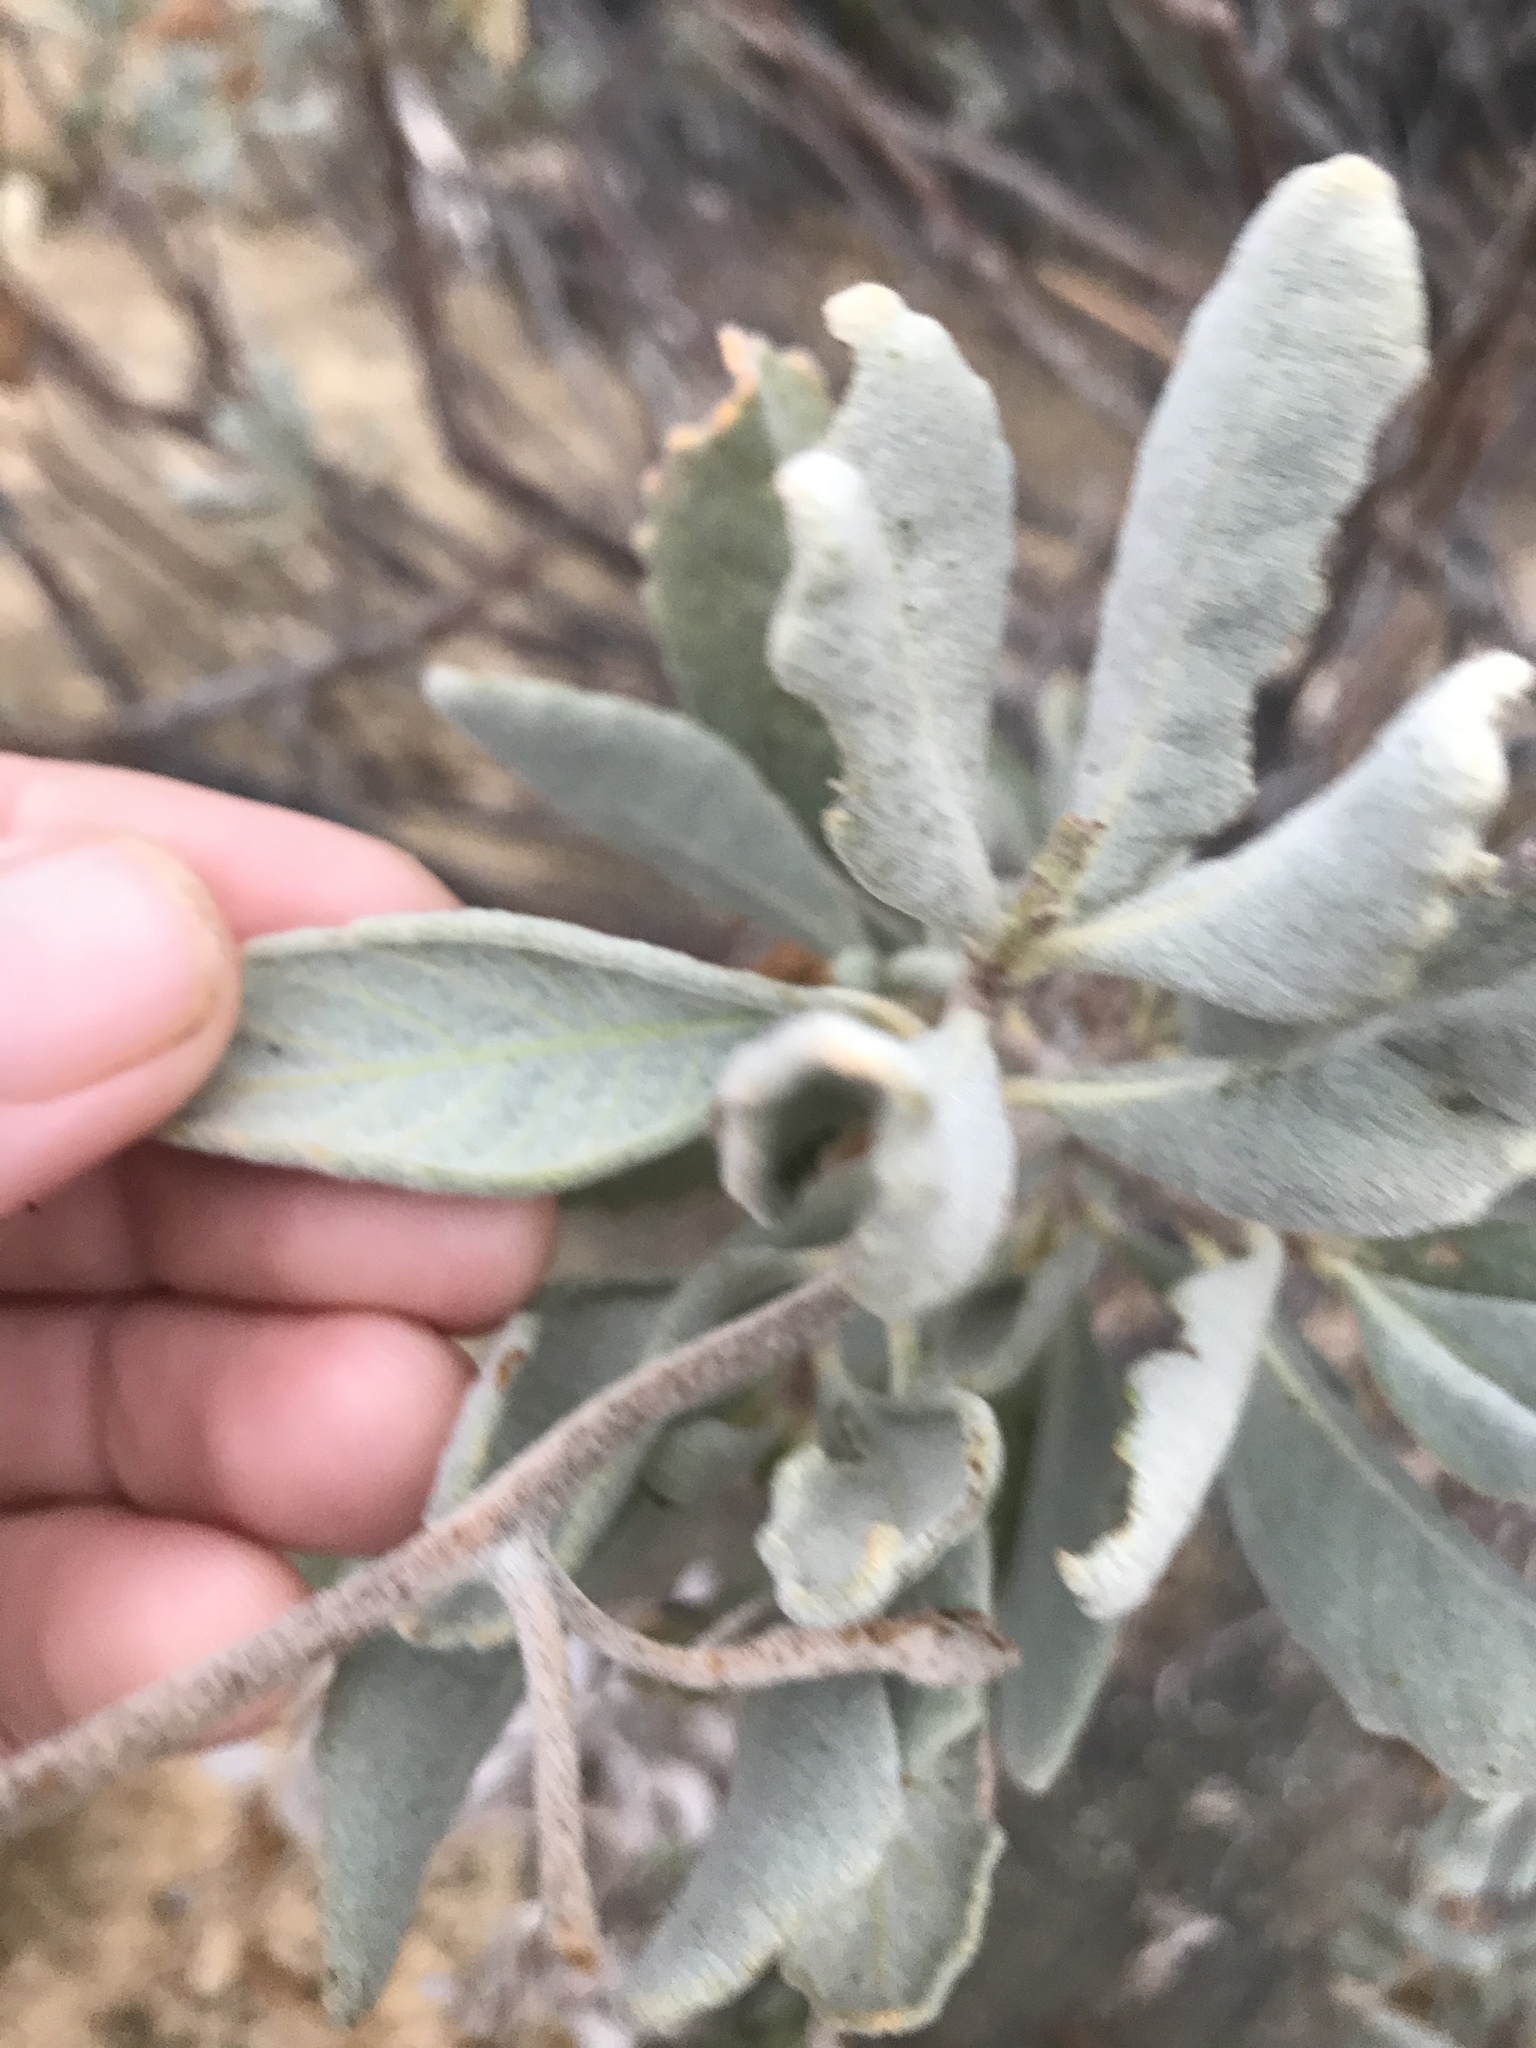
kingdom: Plantae
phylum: Tracheophyta
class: Magnoliopsida
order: Boraginales
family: Namaceae
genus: Eriodictyon
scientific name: Eriodictyon traskiae
